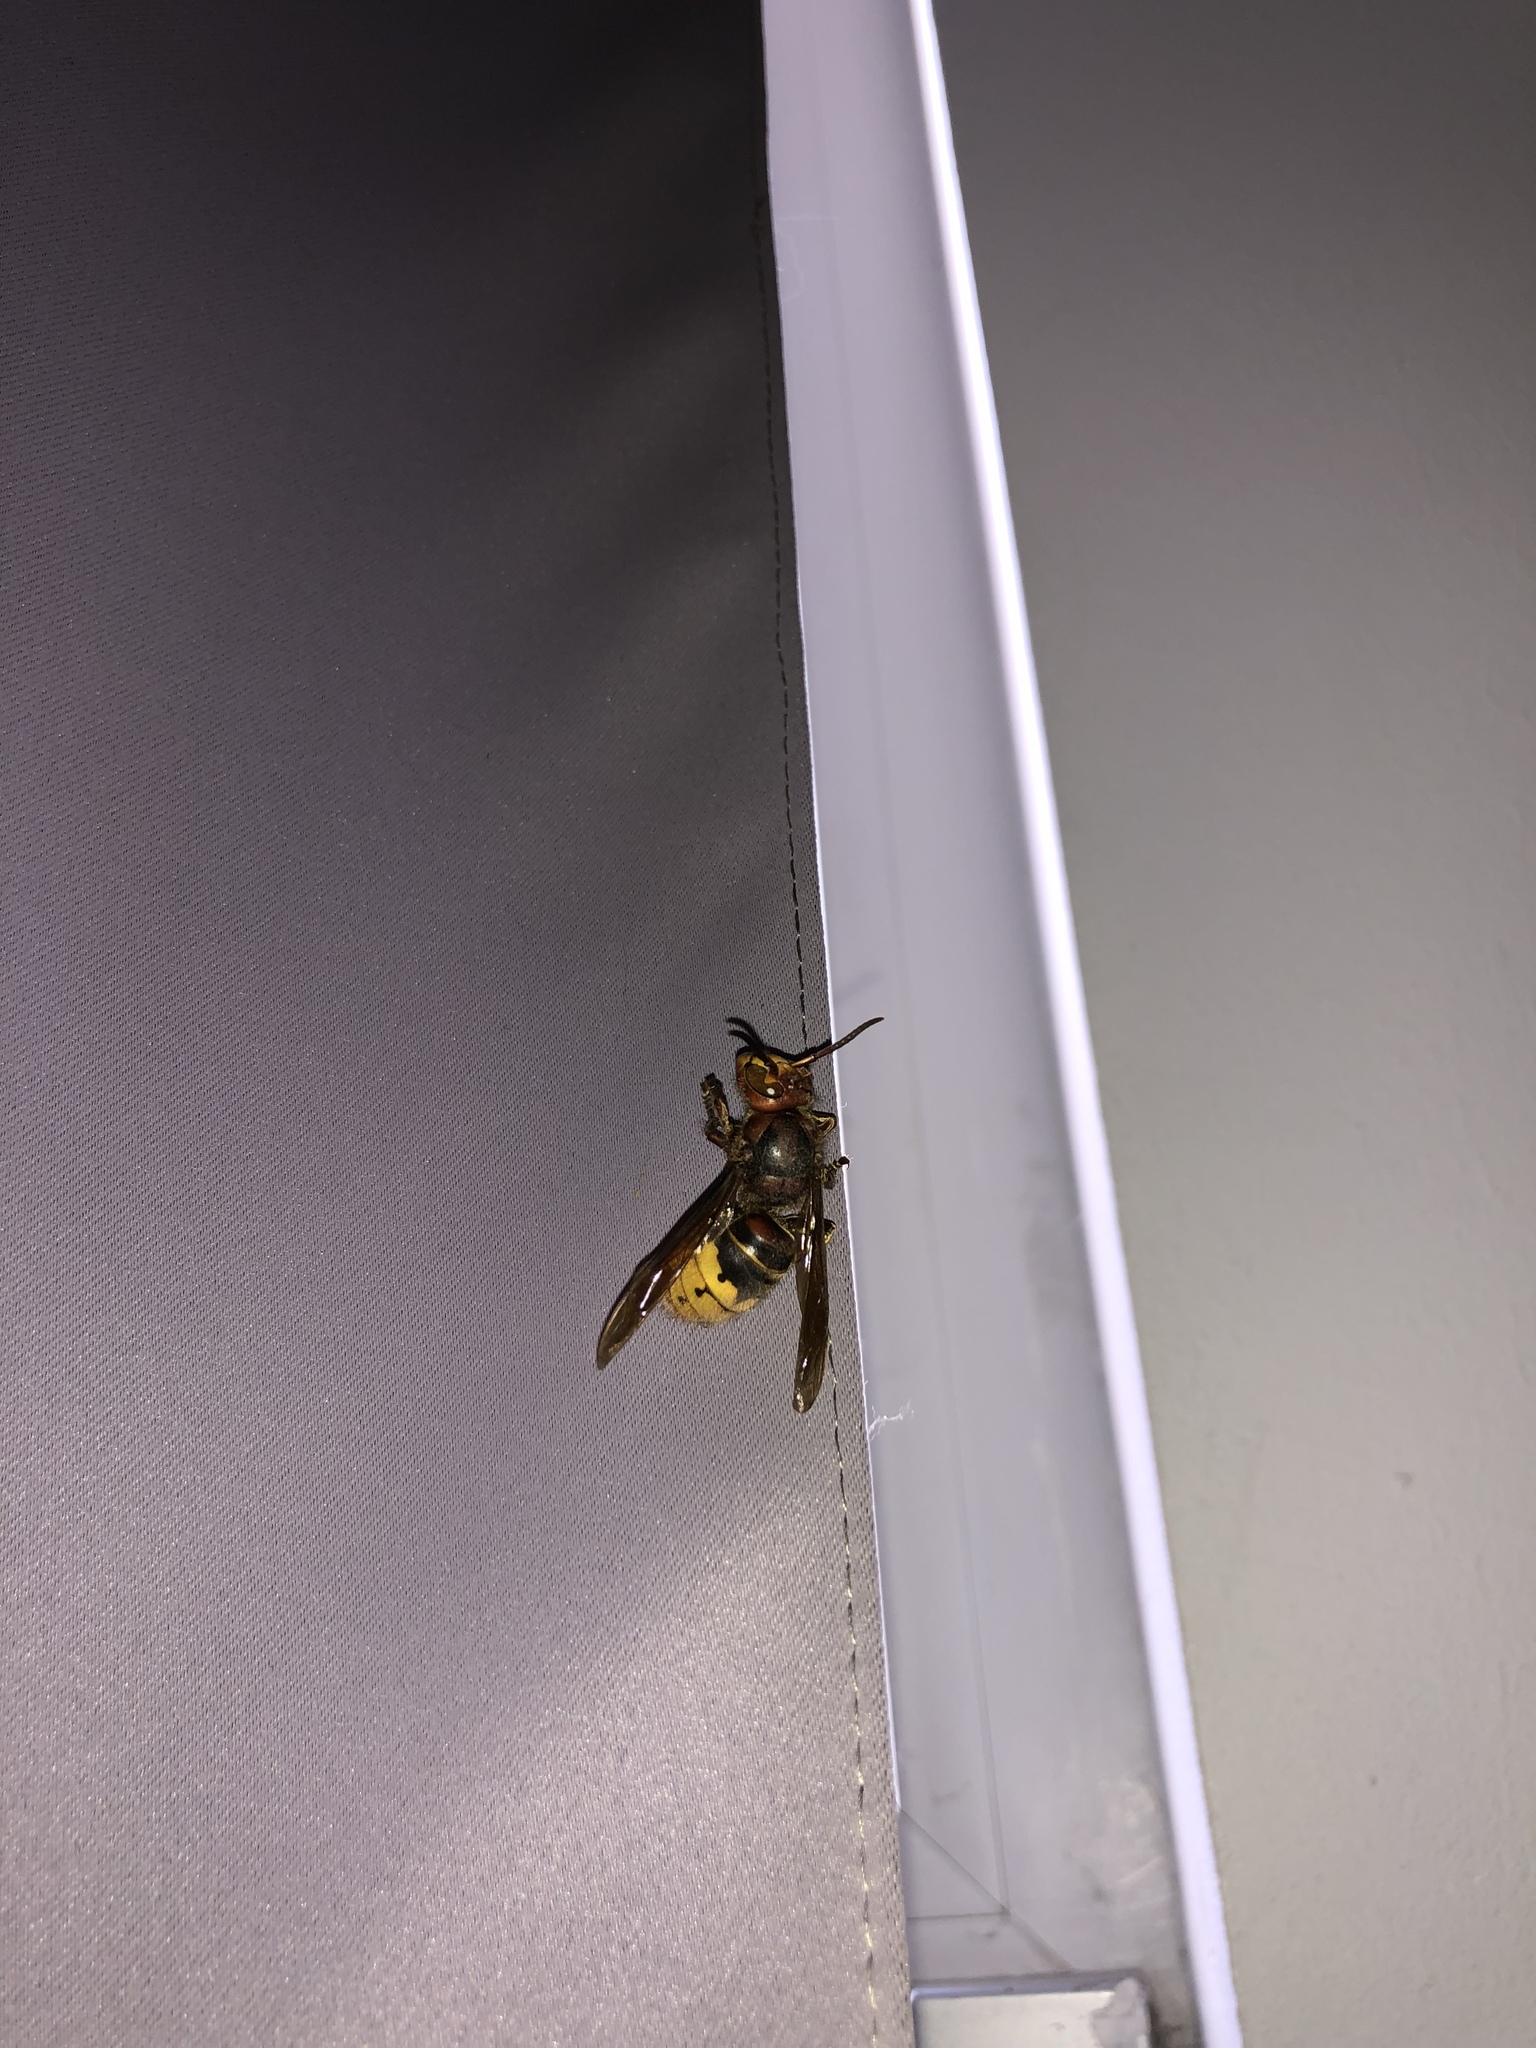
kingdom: Animalia
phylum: Arthropoda
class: Insecta
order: Hymenoptera
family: Vespidae
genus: Vespa
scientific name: Vespa crabro
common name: Hornet
